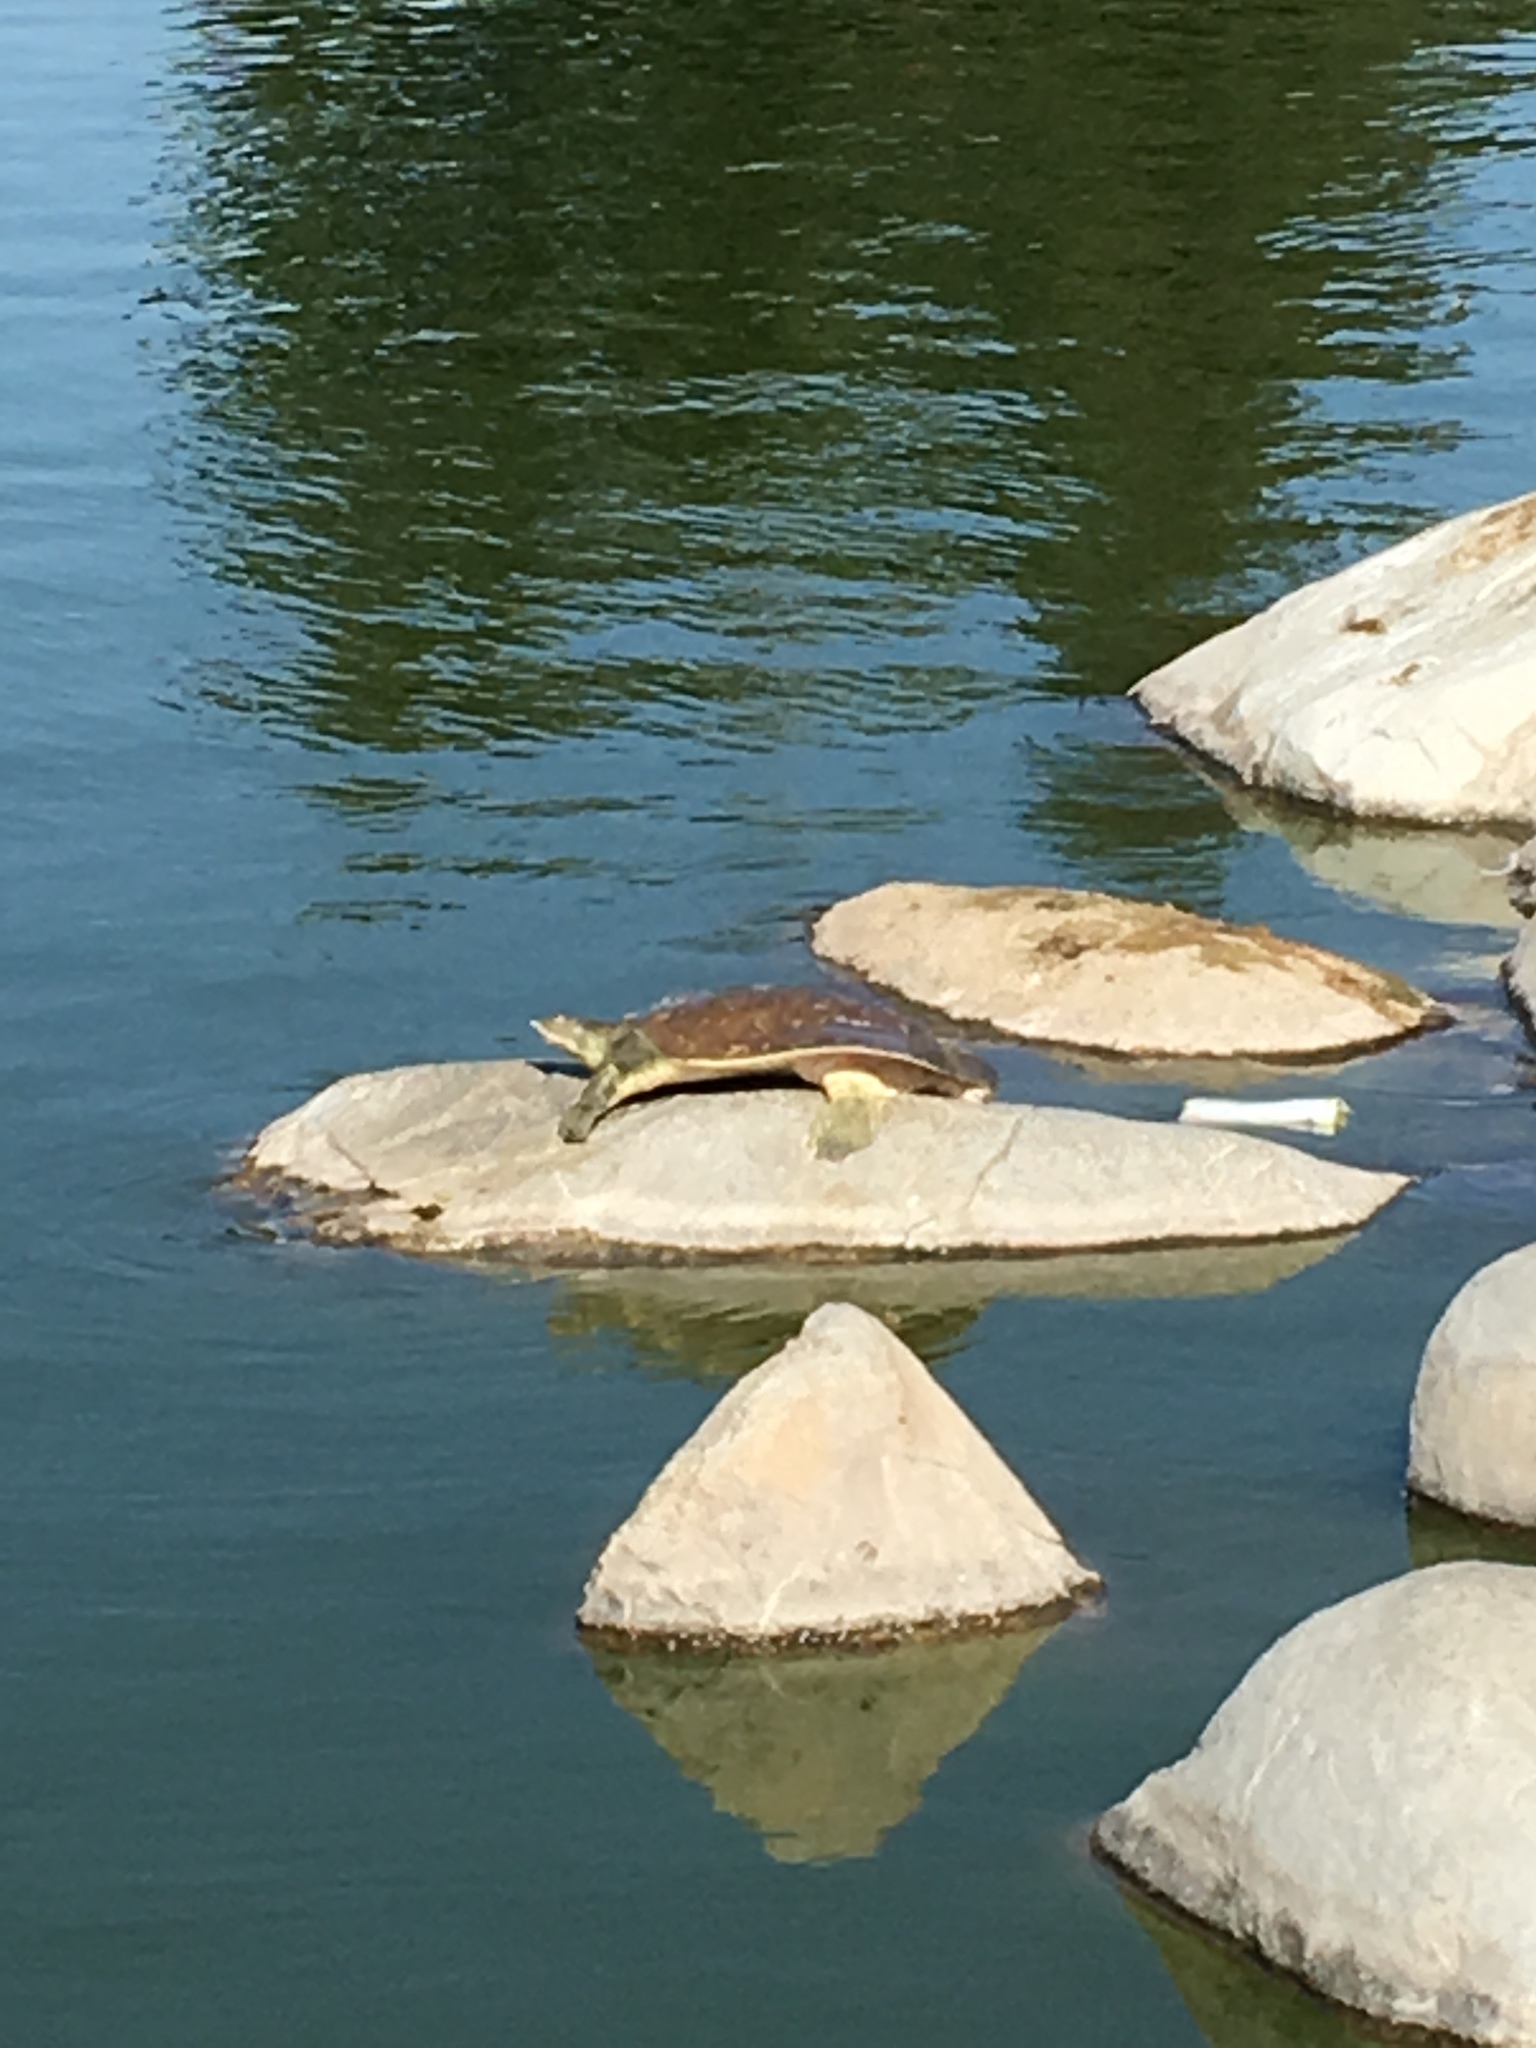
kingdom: Animalia
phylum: Chordata
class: Testudines
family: Trionychidae
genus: Apalone
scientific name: Apalone spinifera
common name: Spiny softshell turtle
